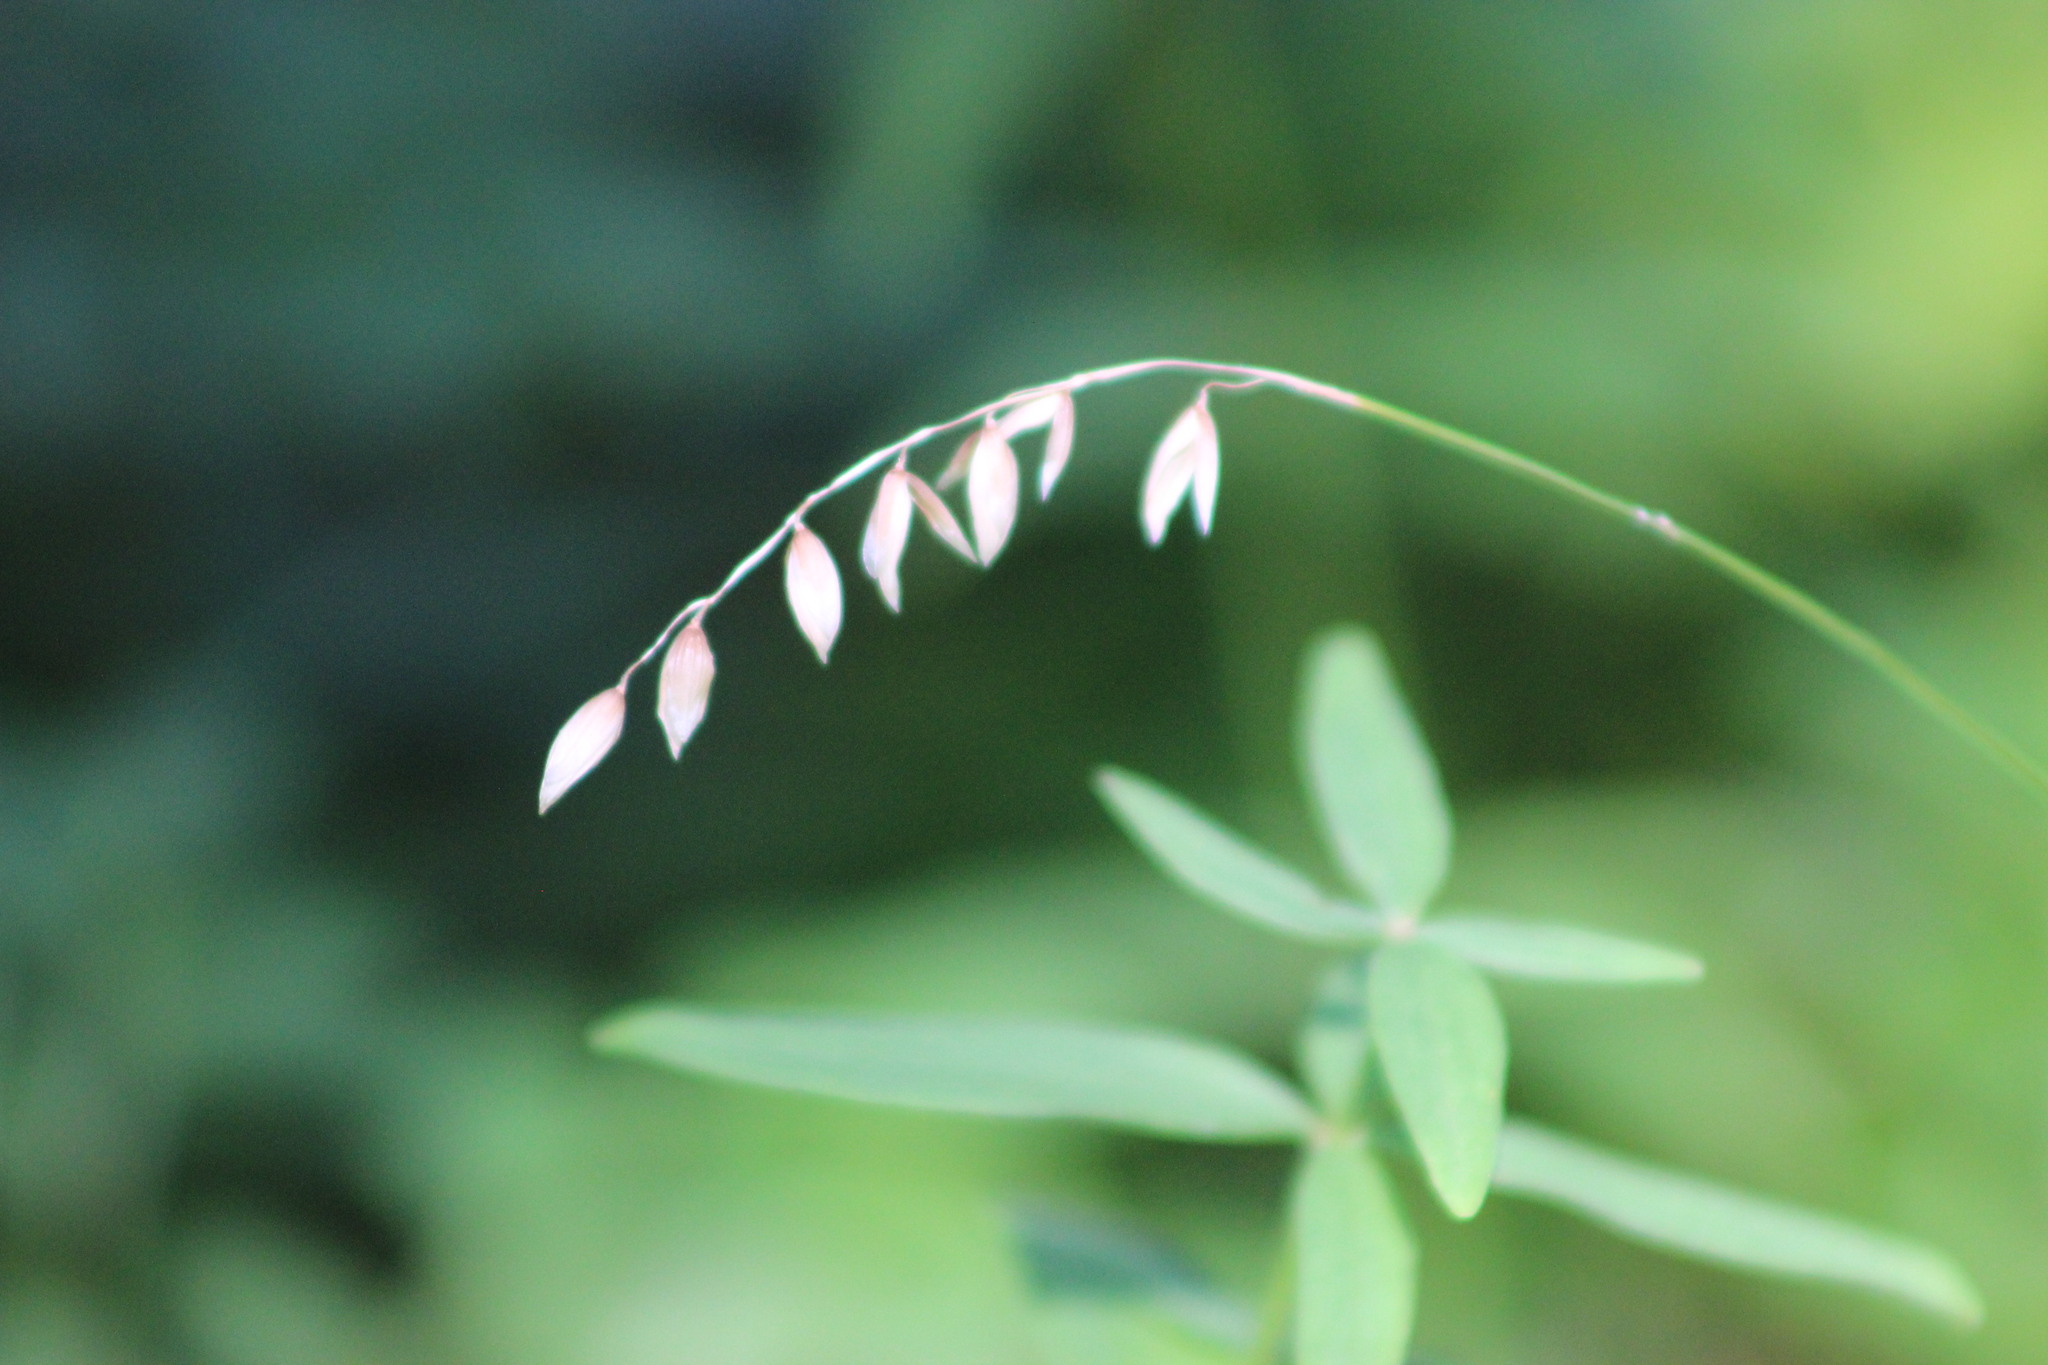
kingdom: Plantae
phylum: Tracheophyta
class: Liliopsida
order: Poales
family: Poaceae
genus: Melica
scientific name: Melica nutans
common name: Mountain melick
